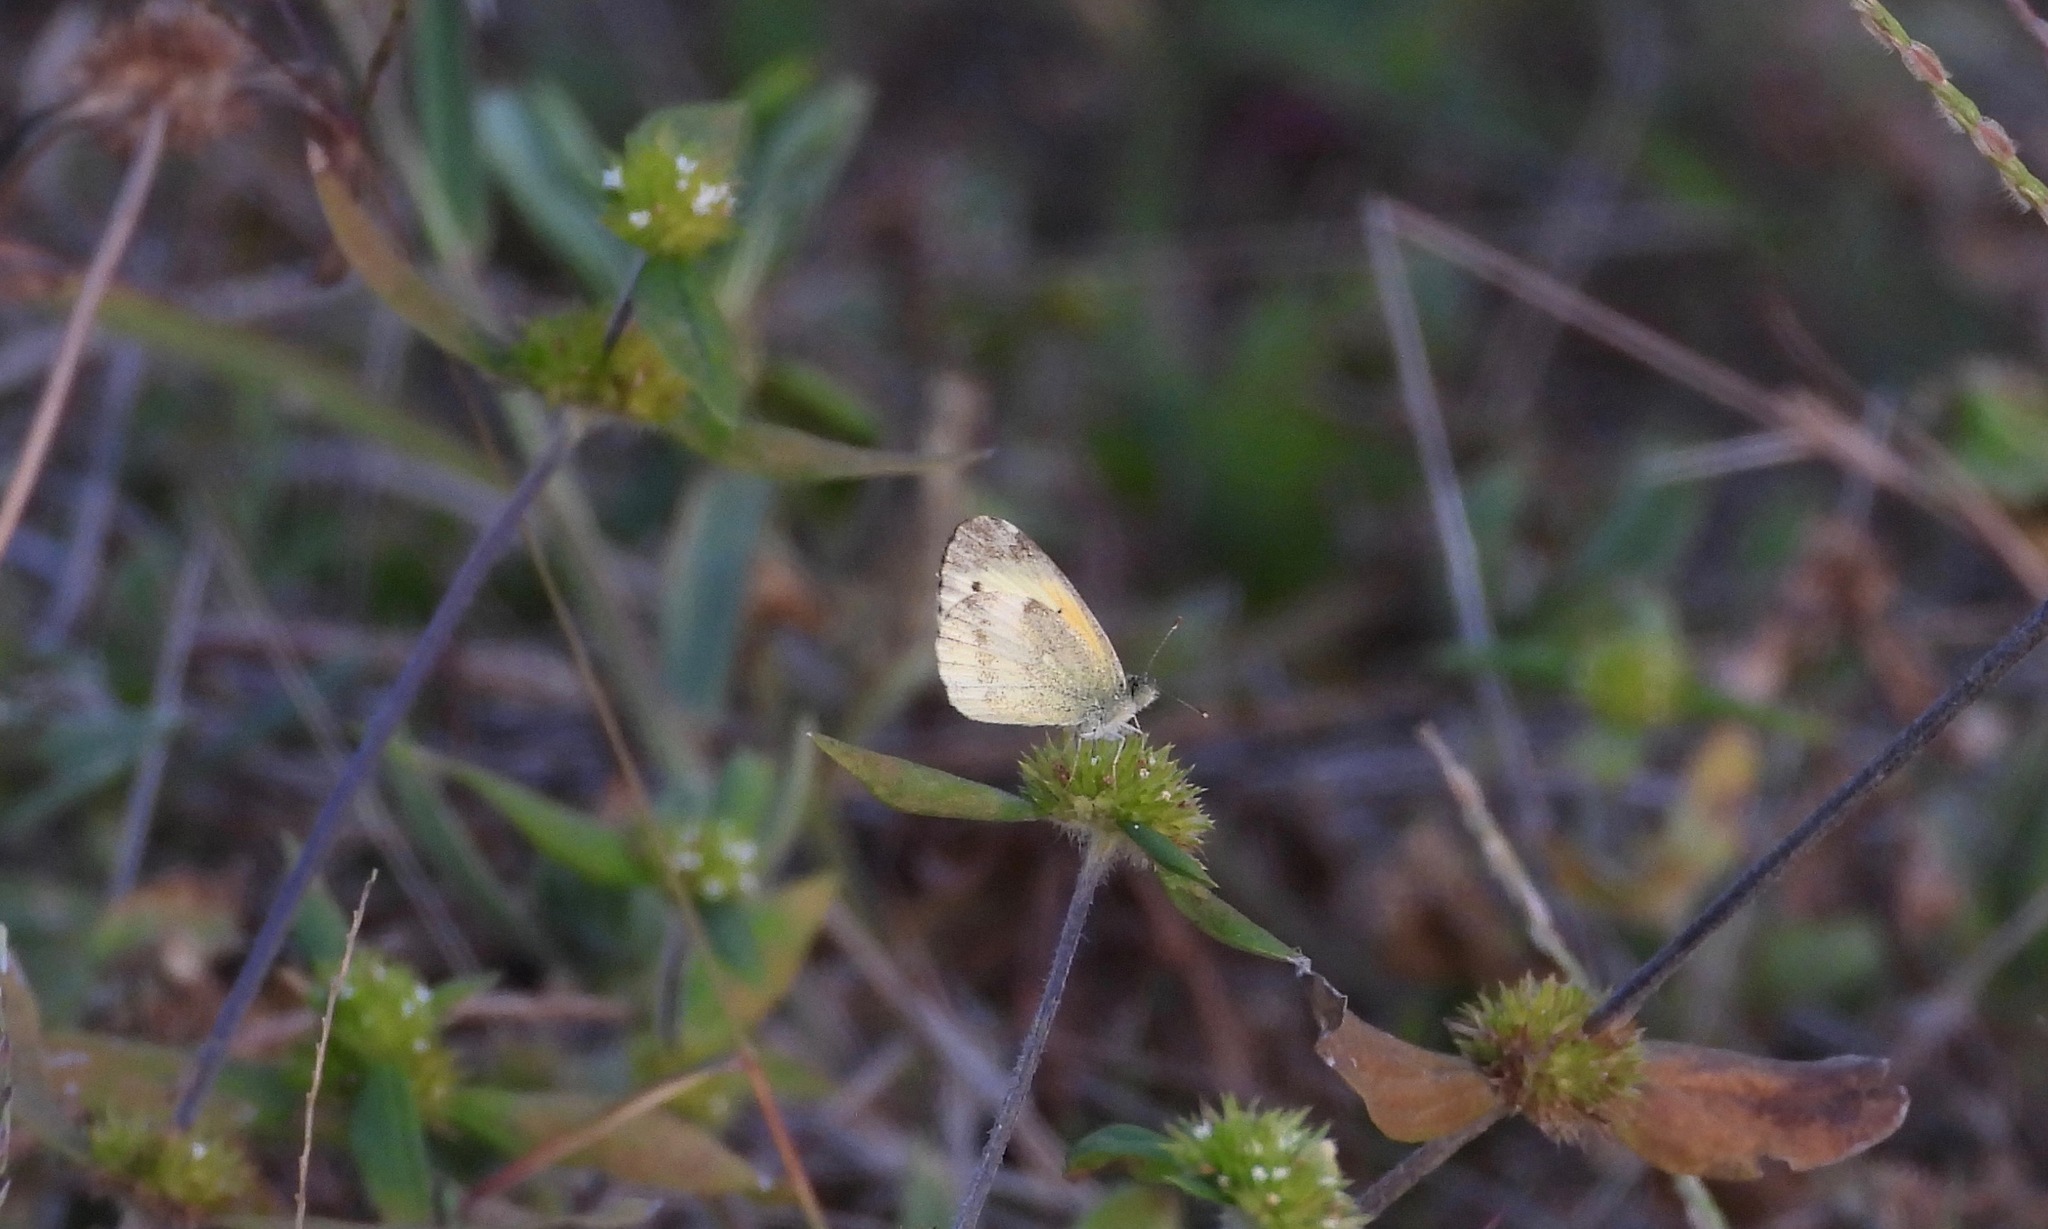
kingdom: Animalia
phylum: Arthropoda
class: Insecta
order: Lepidoptera
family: Pieridae
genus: Nathalis
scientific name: Nathalis iole
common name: Dainty sulphur
